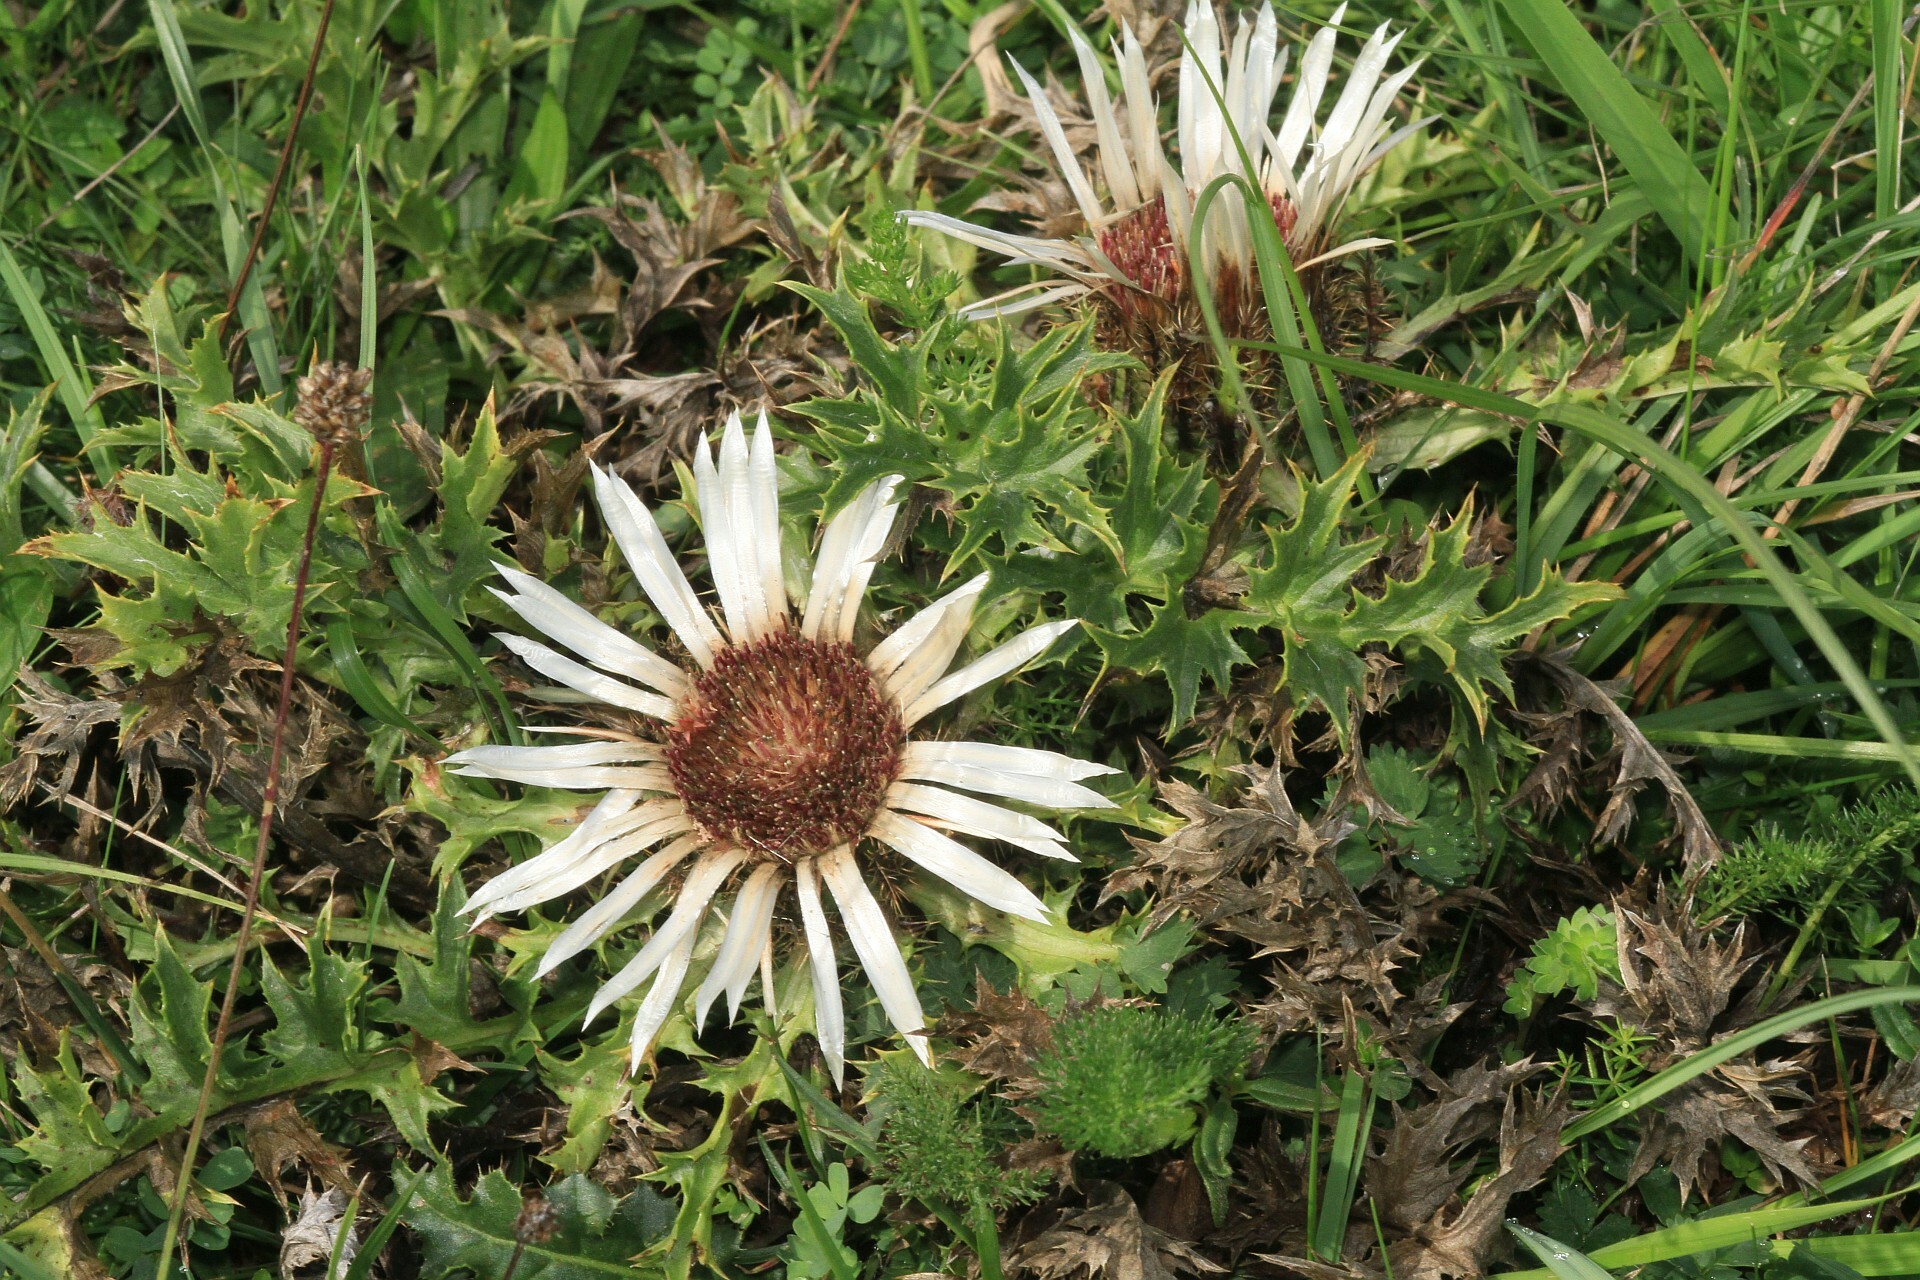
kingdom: Plantae
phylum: Tracheophyta
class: Magnoliopsida
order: Asterales
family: Asteraceae
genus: Carlina
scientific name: Carlina acaulis
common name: Stemless carline thistle
